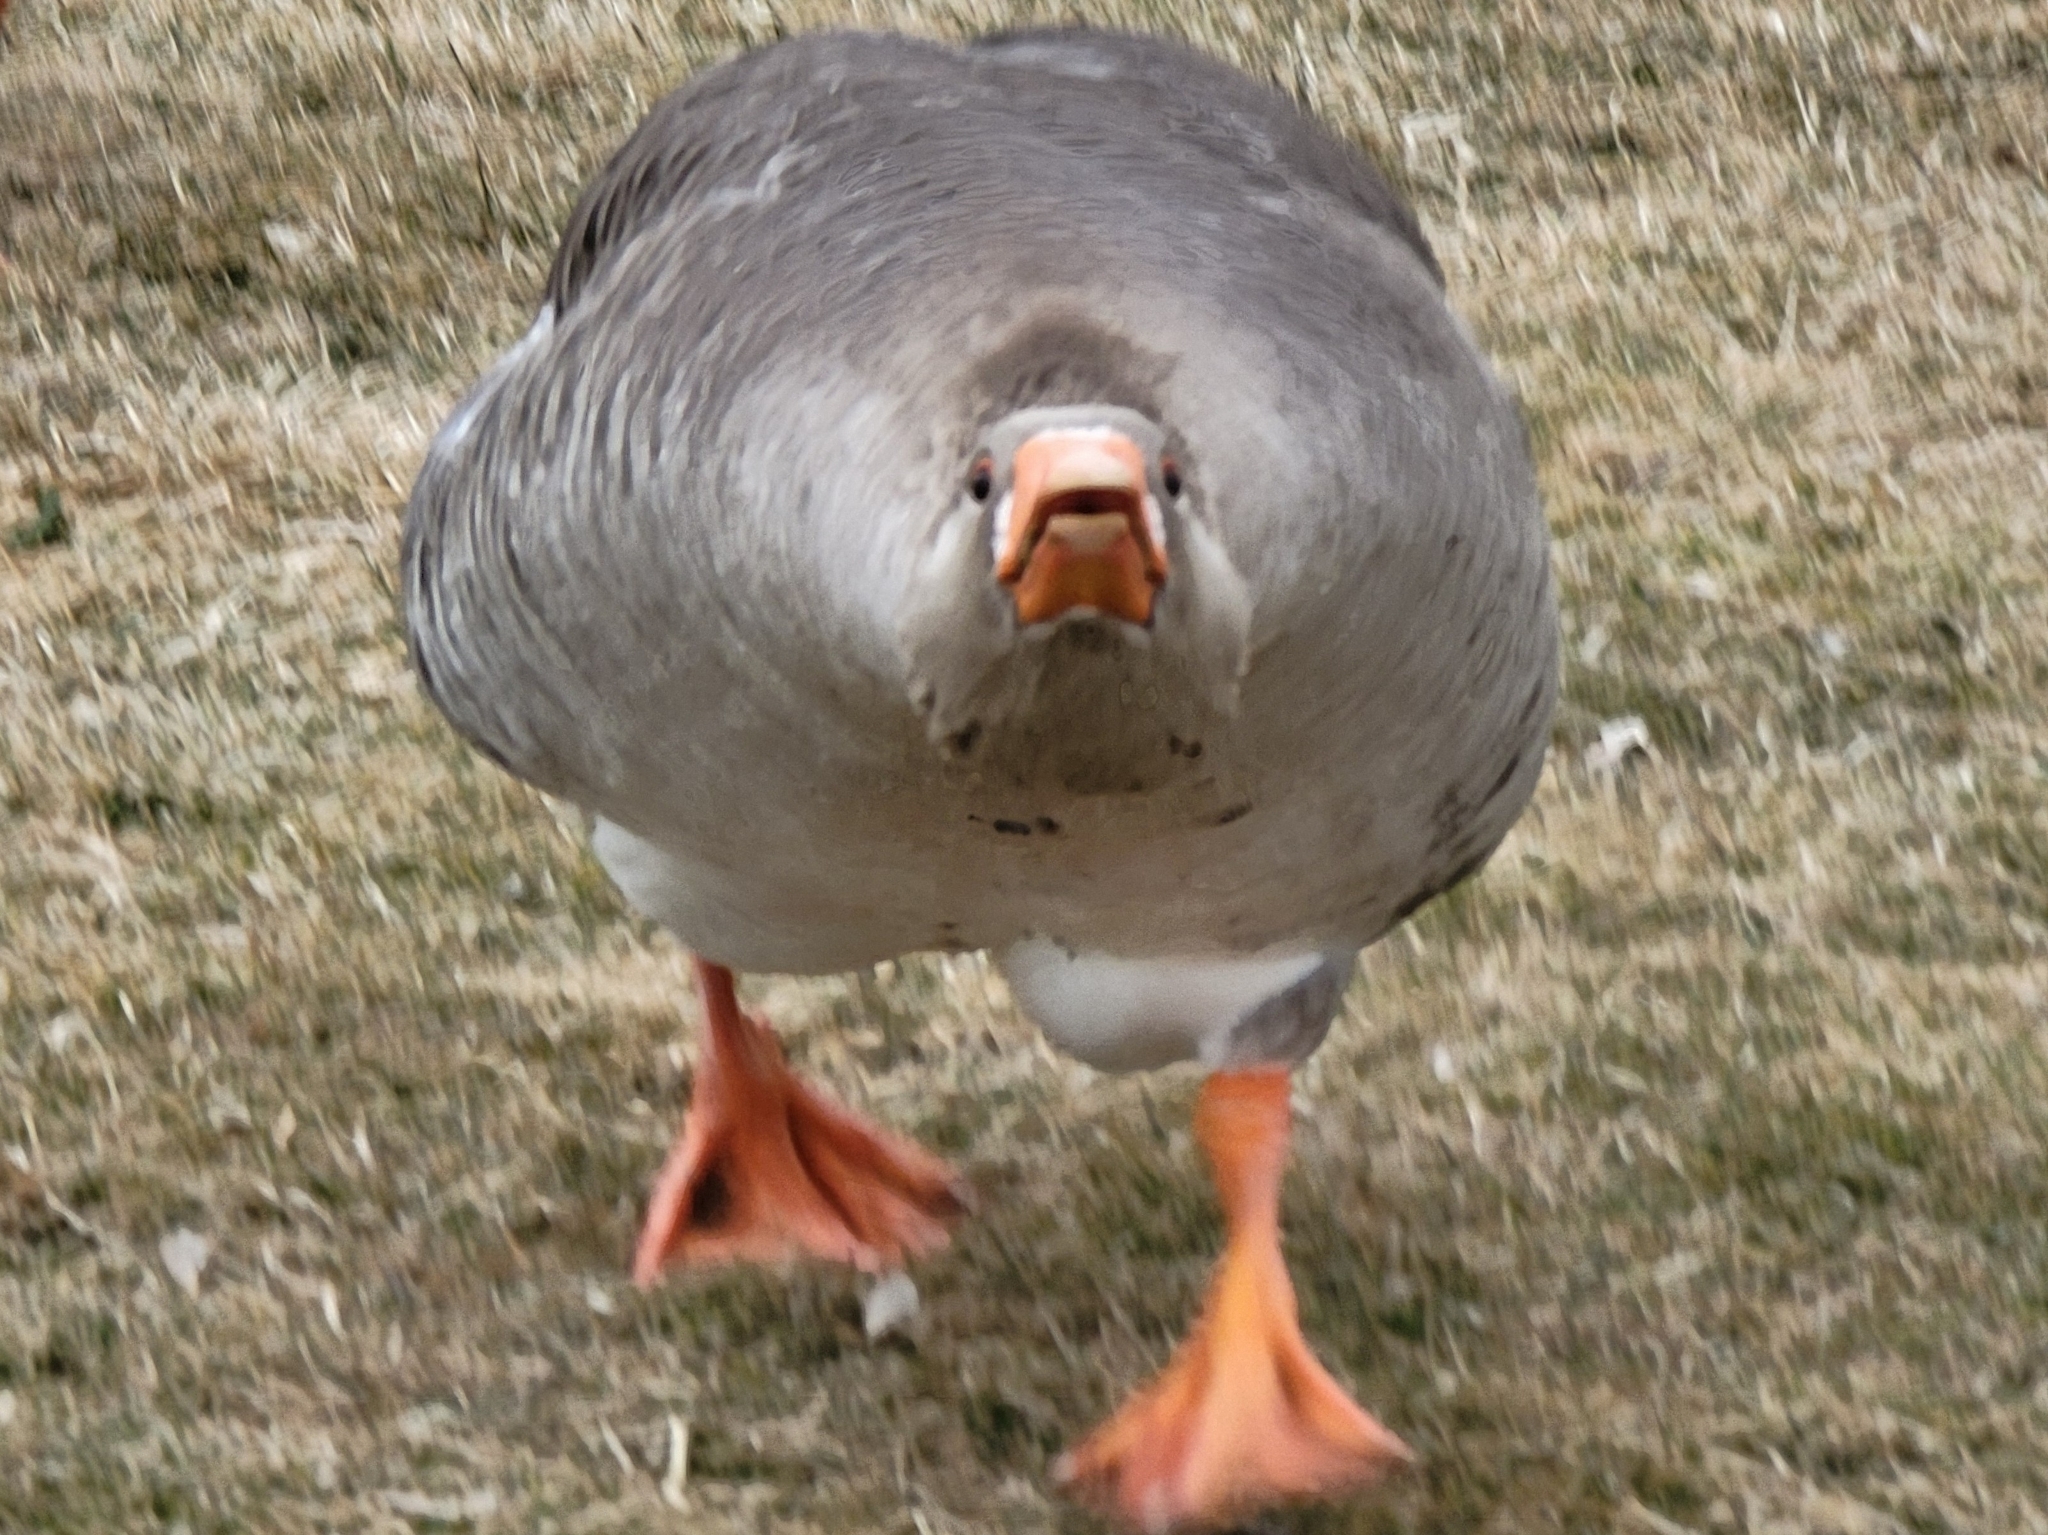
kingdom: Animalia
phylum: Chordata
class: Aves
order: Anseriformes
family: Anatidae
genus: Anser
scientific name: Anser anser
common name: Greylag goose
